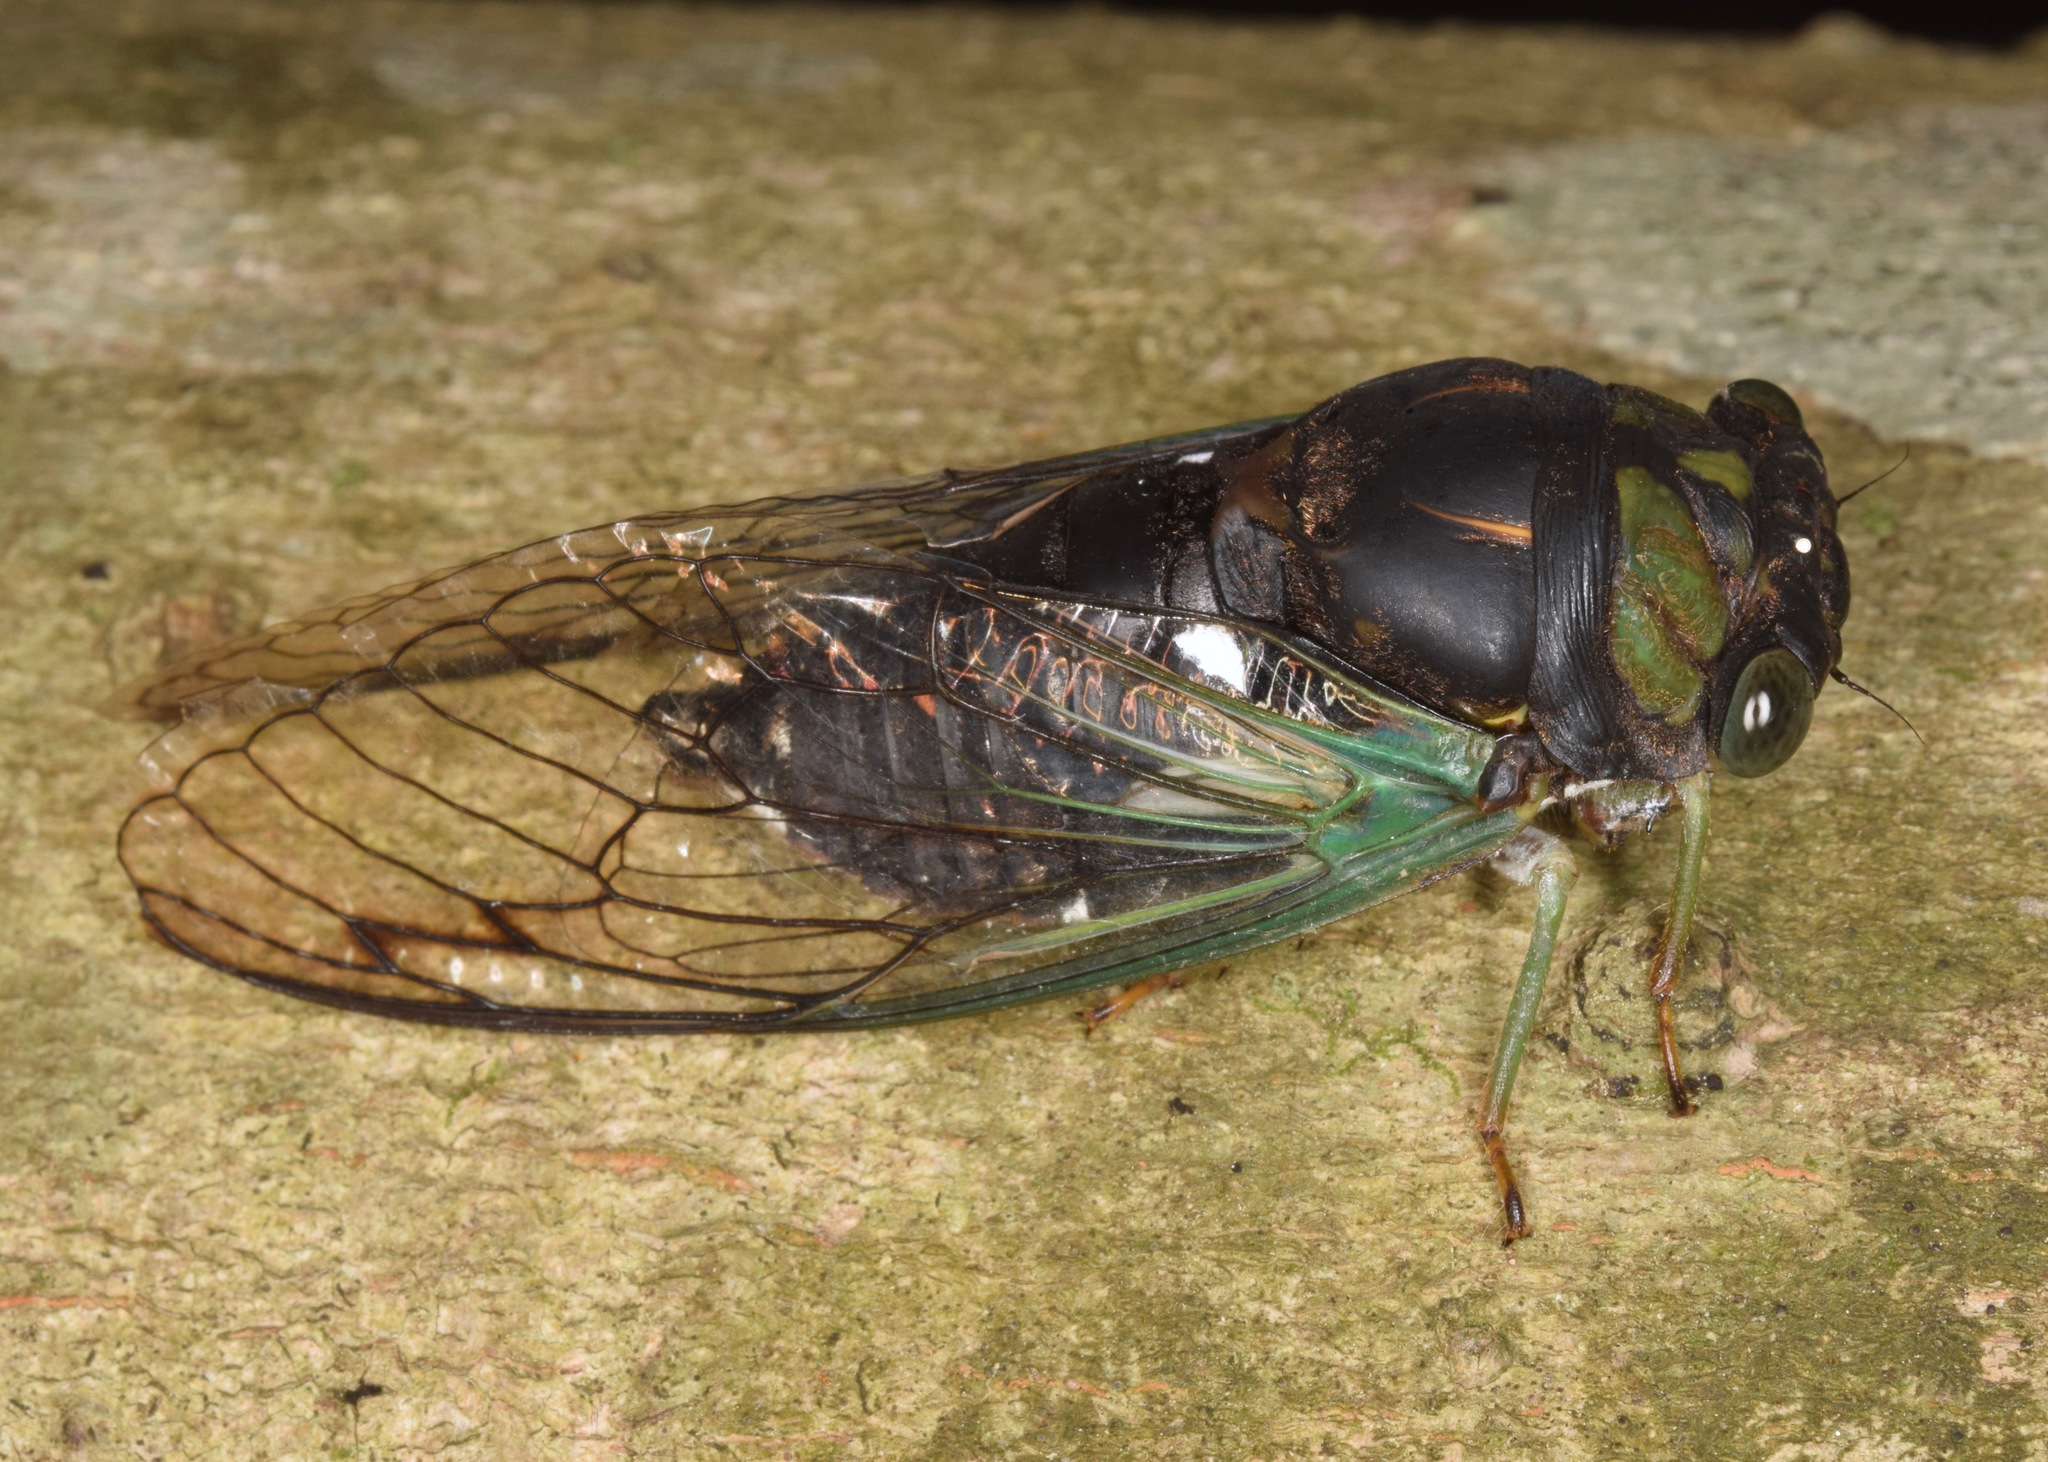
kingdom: Animalia
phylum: Arthropoda
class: Insecta
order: Hemiptera
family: Cicadidae
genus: Neotibicen
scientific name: Neotibicen tibicen
